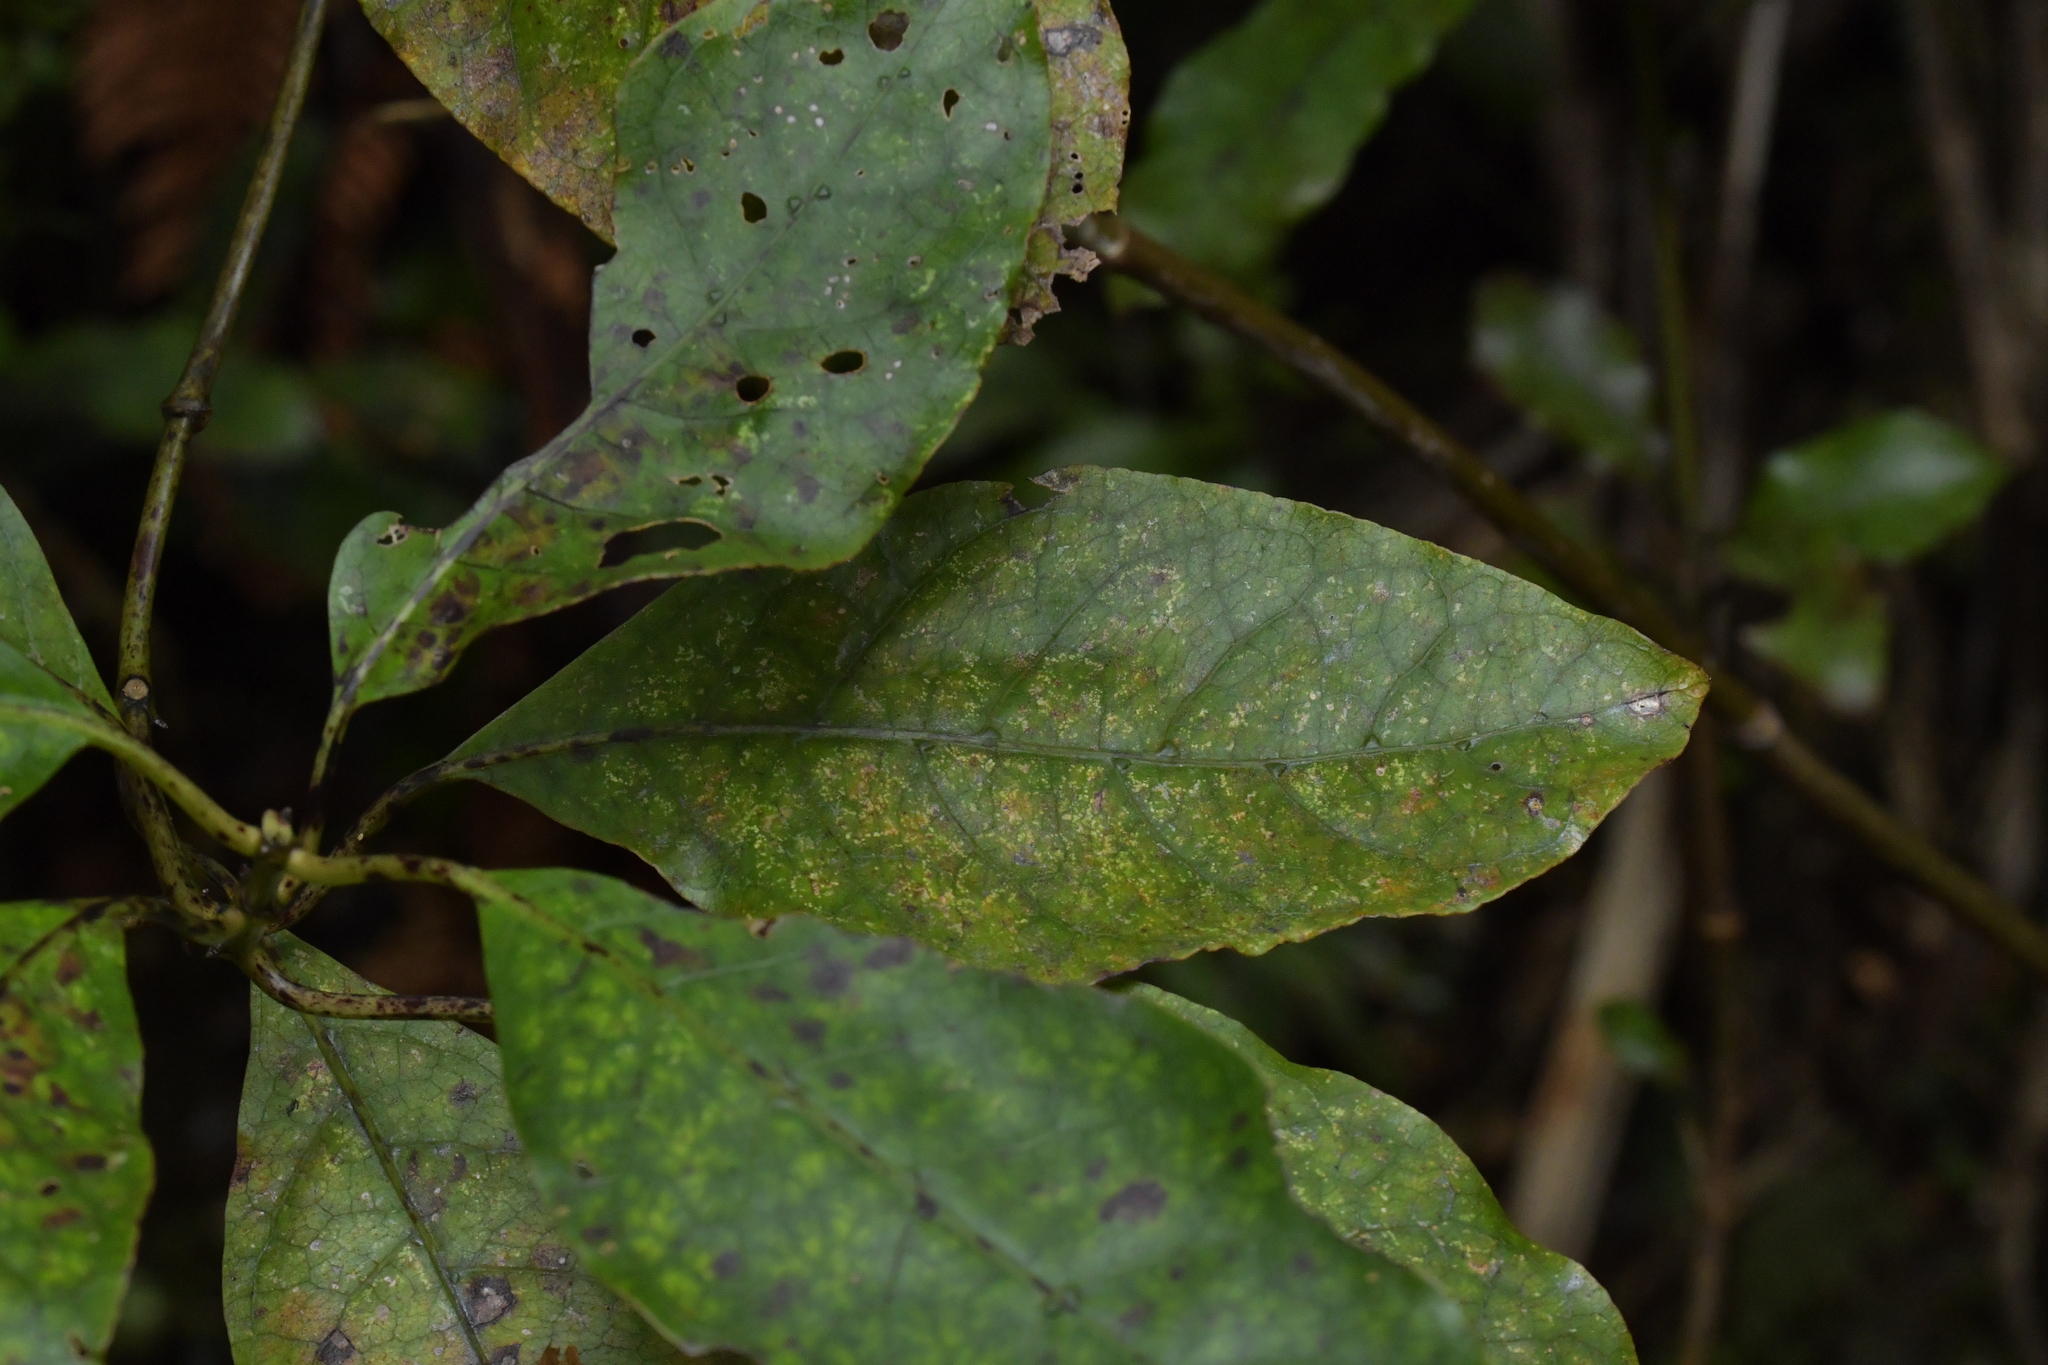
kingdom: Plantae
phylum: Tracheophyta
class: Magnoliopsida
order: Gentianales
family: Rubiaceae
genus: Coprosma
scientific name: Coprosma autumnalis
